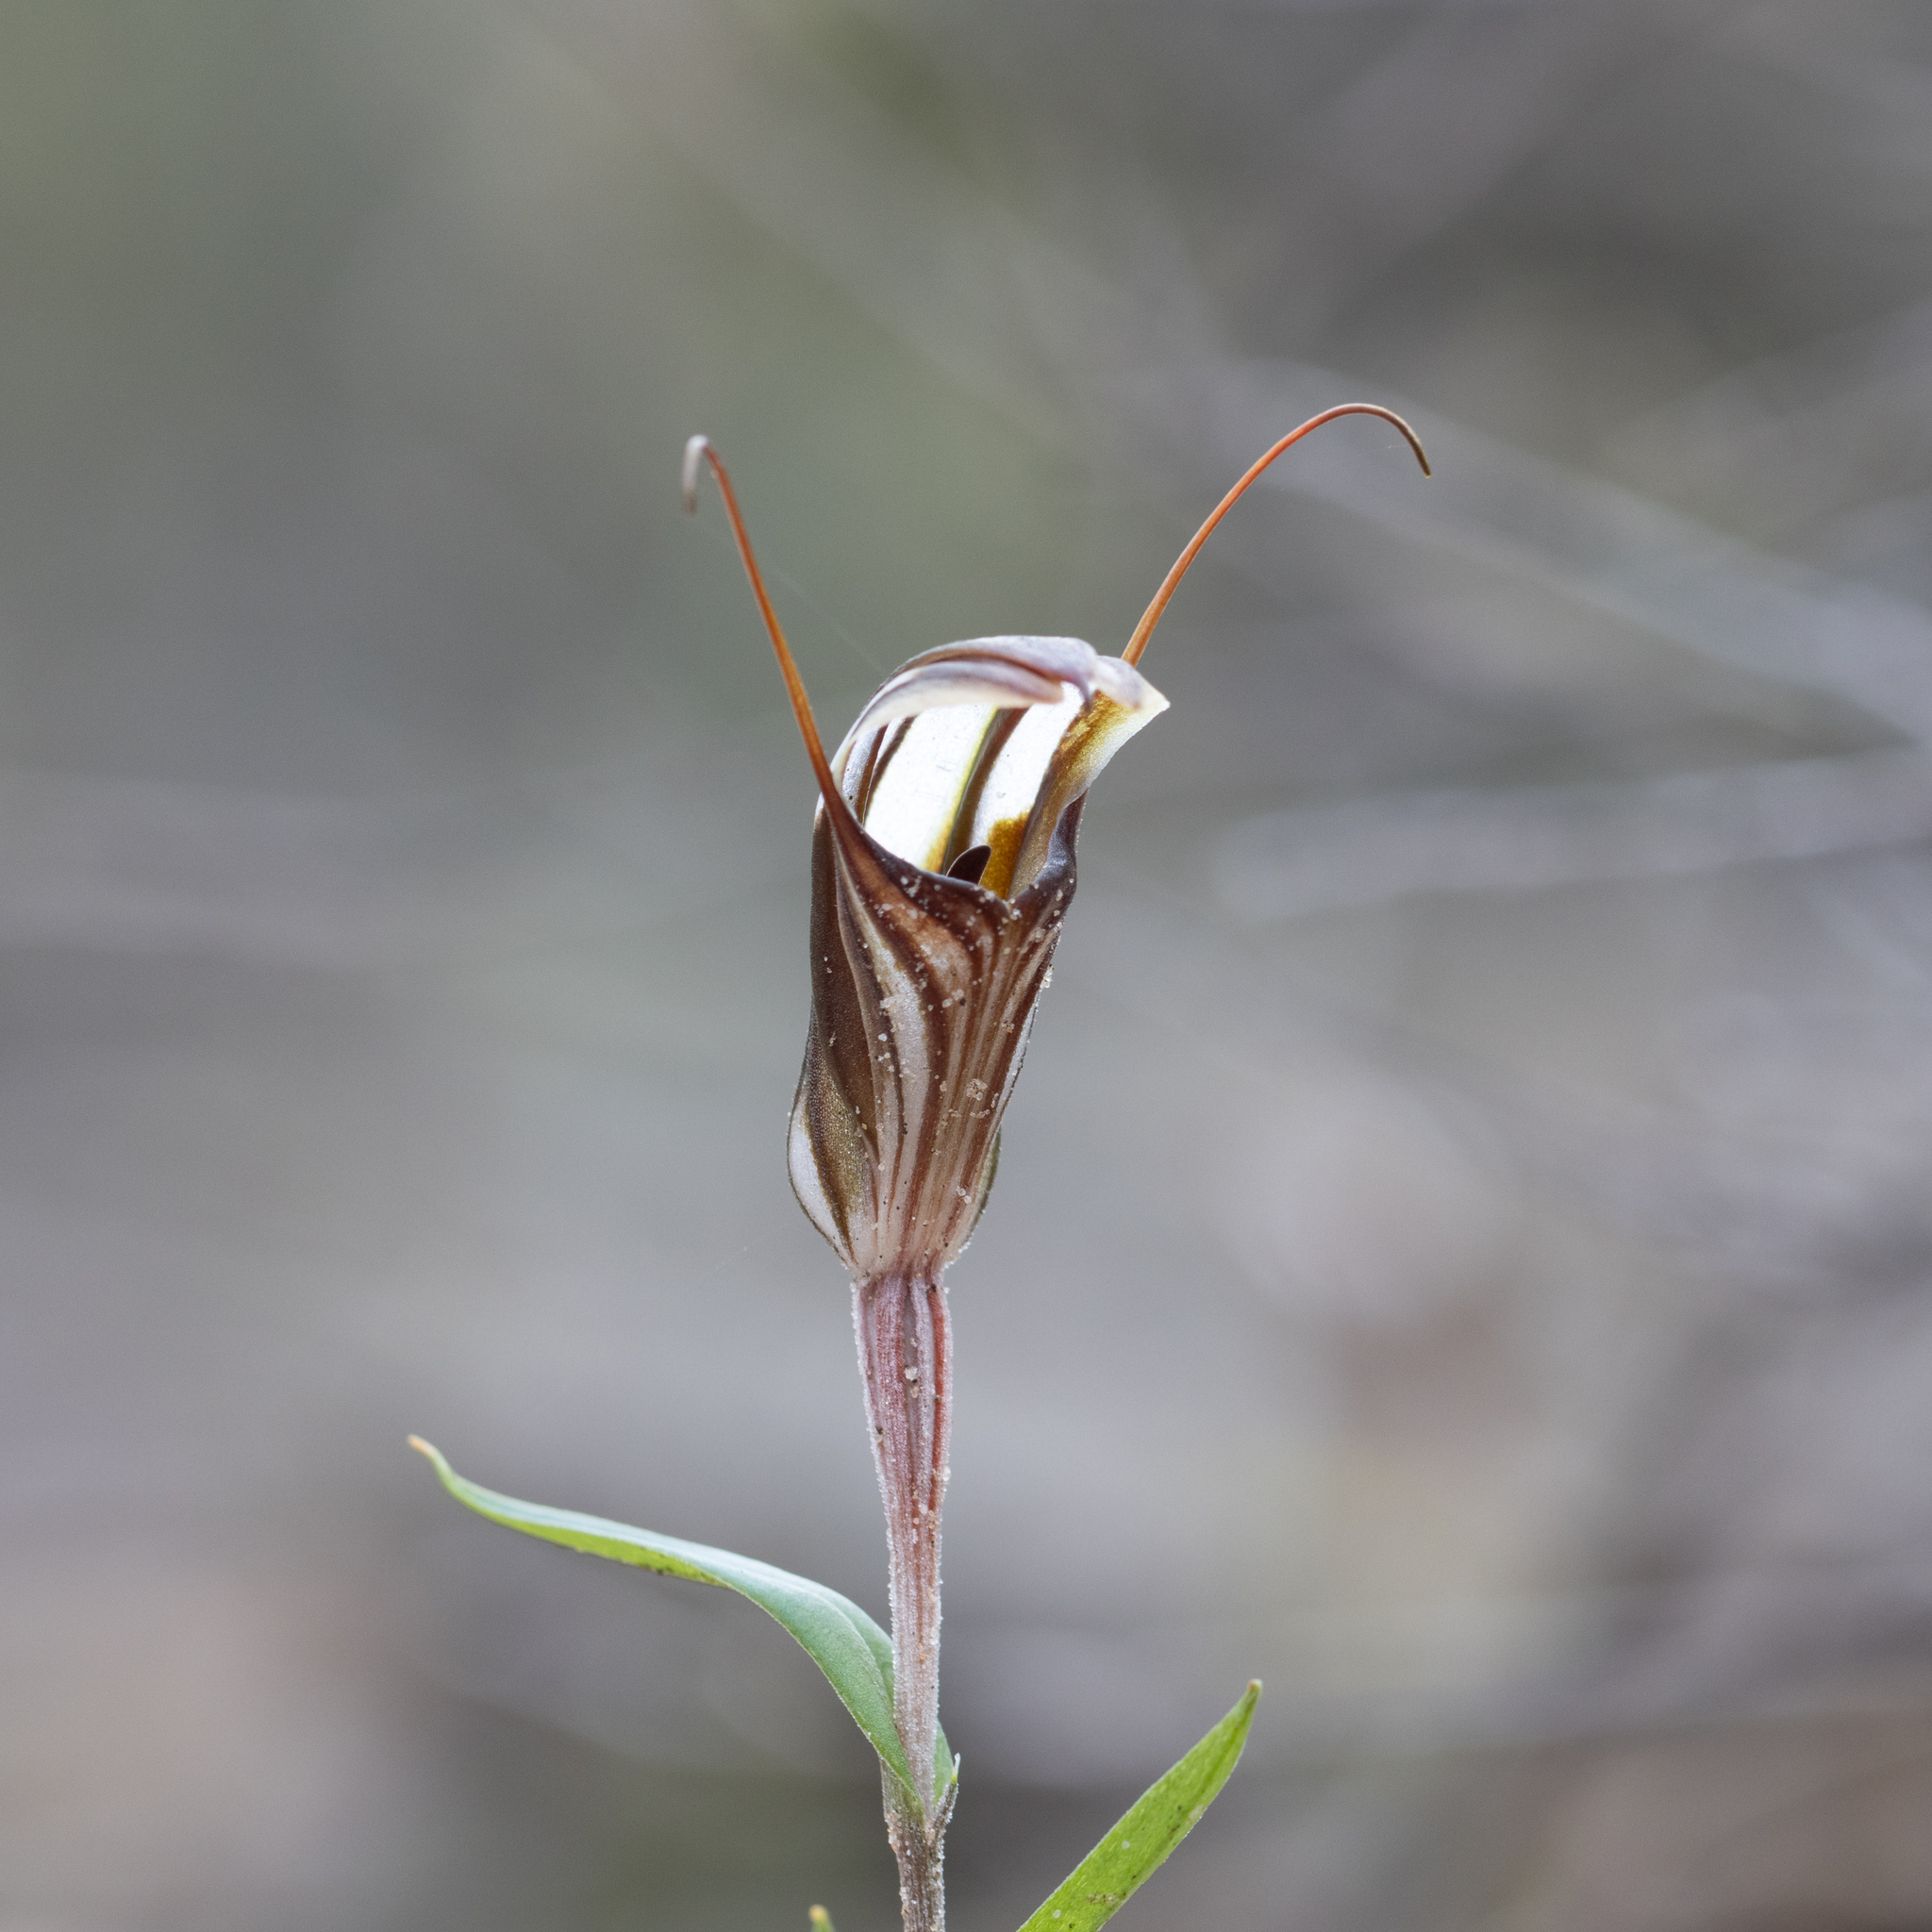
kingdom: Plantae
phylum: Tracheophyta
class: Liliopsida
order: Asparagales
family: Orchidaceae
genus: Pterostylis
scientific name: Pterostylis dolichochila
